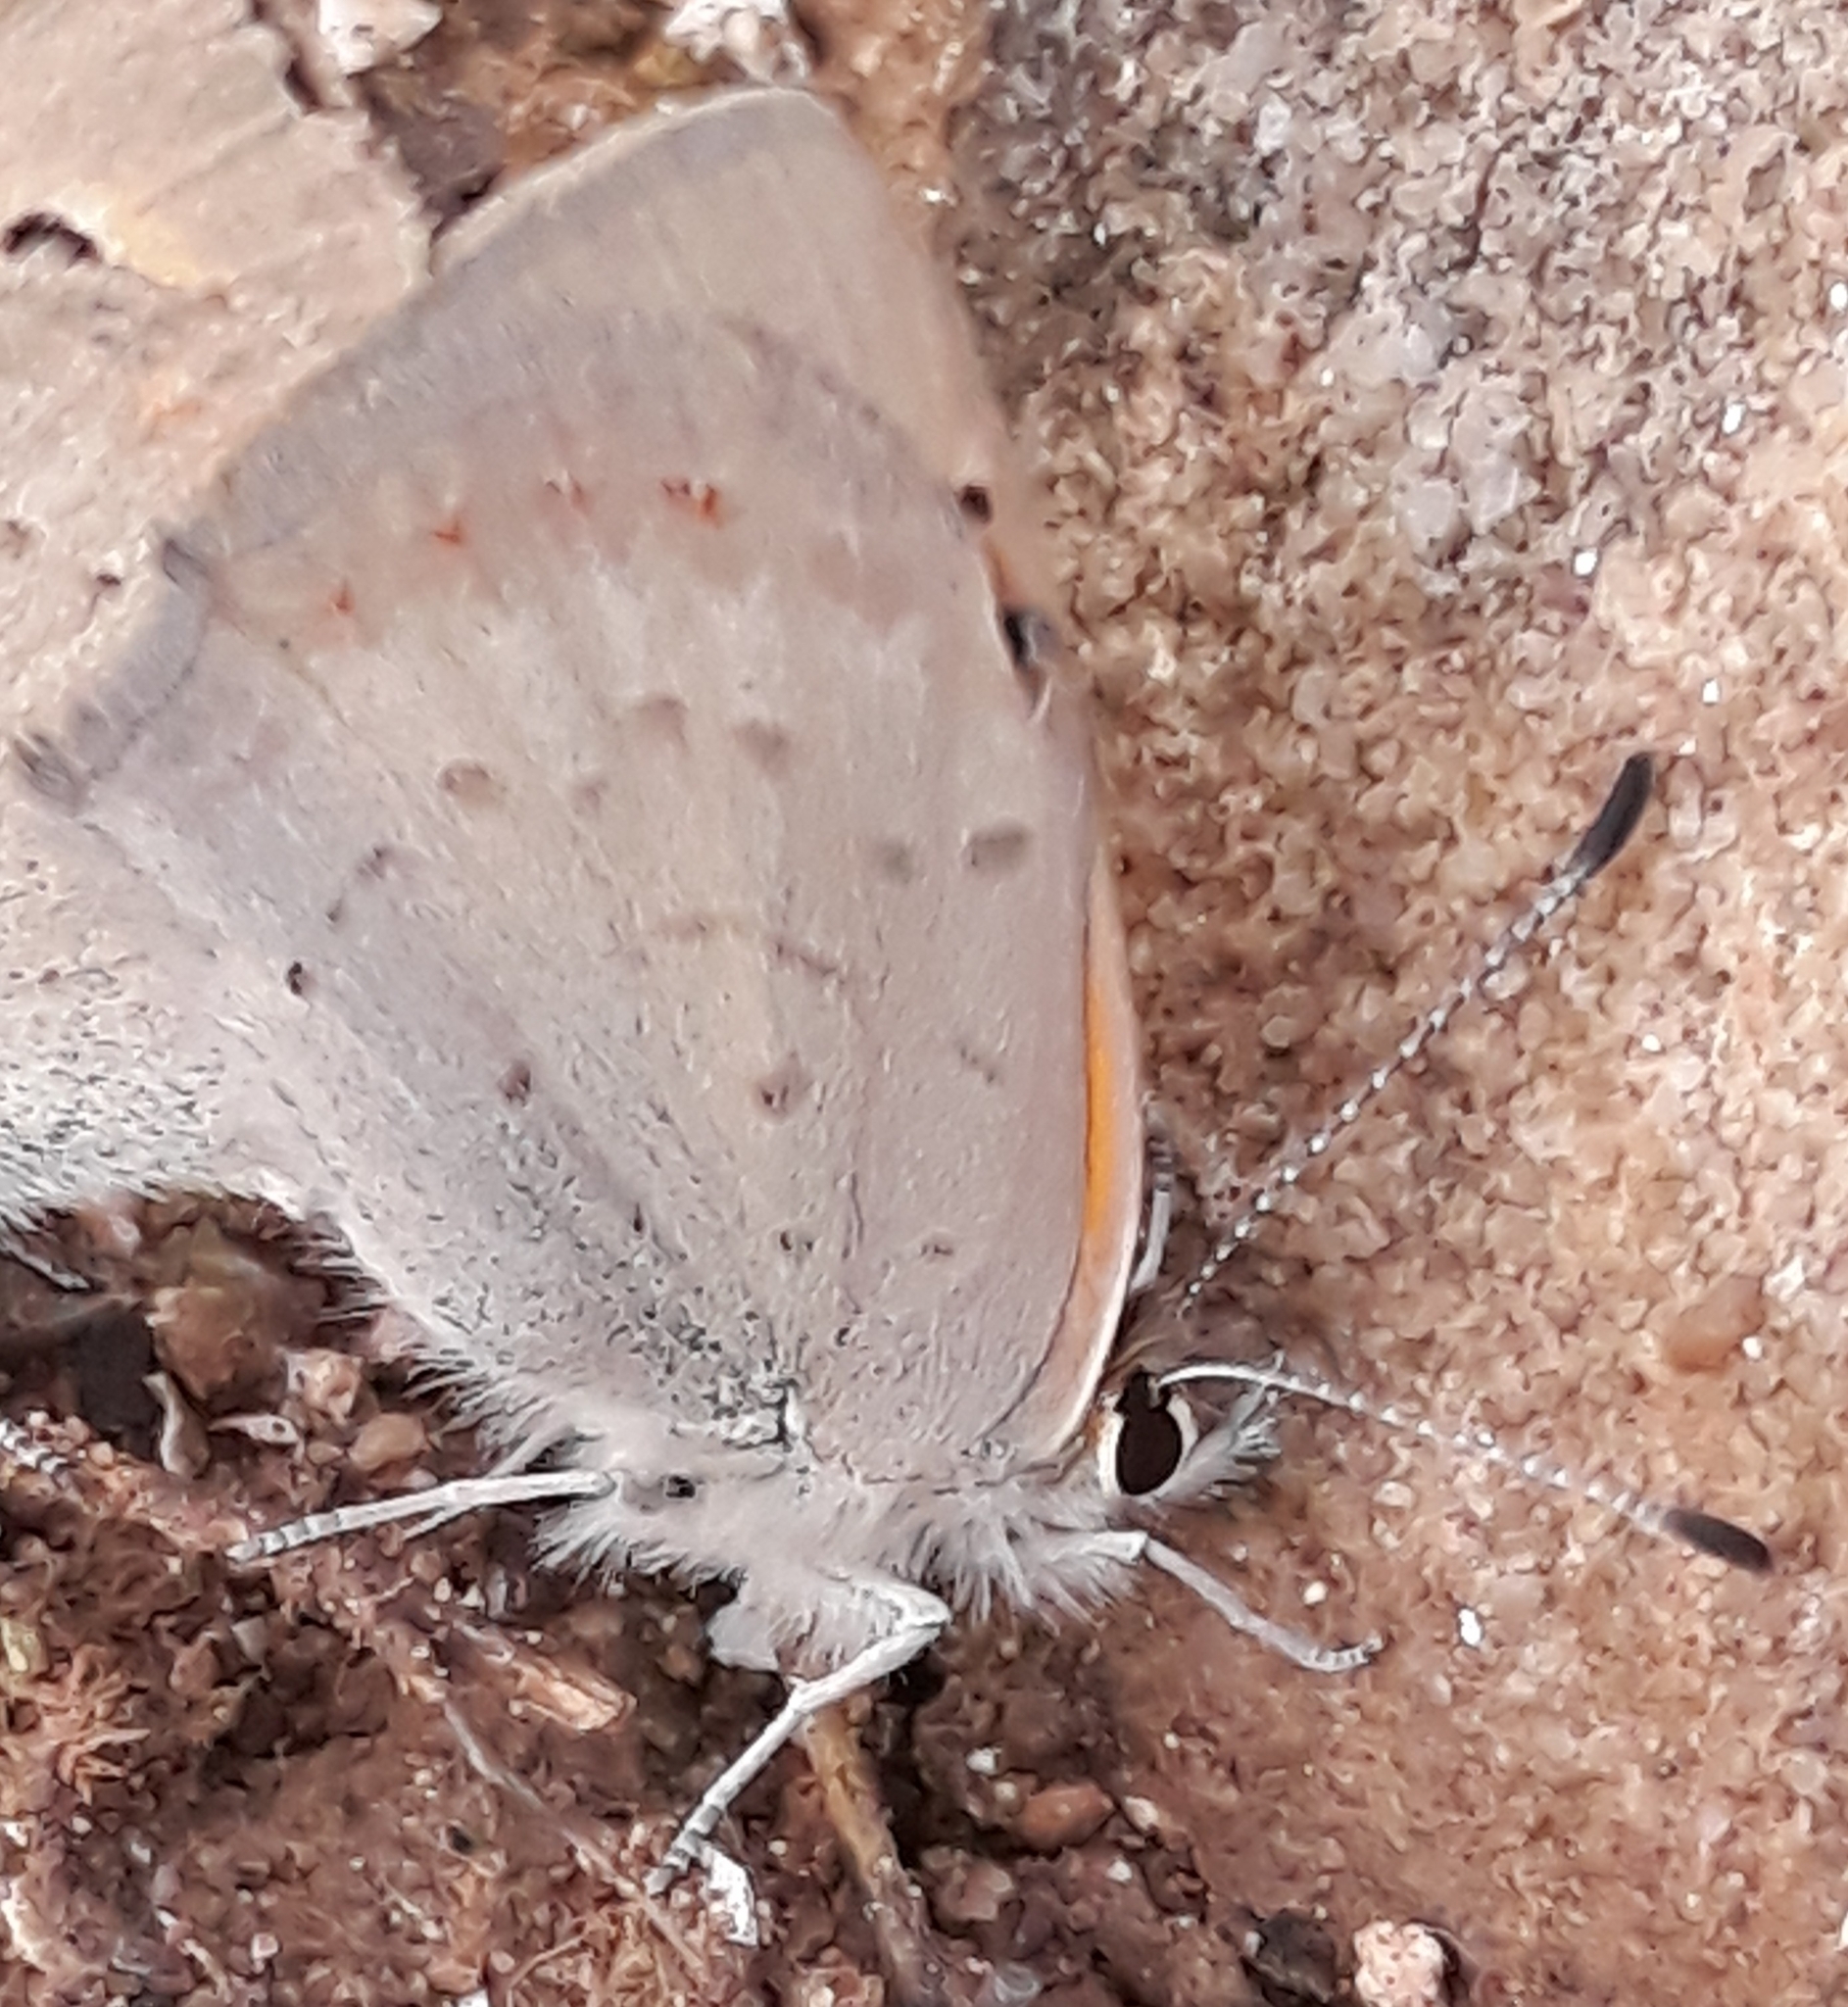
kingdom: Animalia
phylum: Arthropoda
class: Insecta
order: Lepidoptera
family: Lycaenidae
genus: Lycaena
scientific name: Lycaena phlaeas
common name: Small copper
